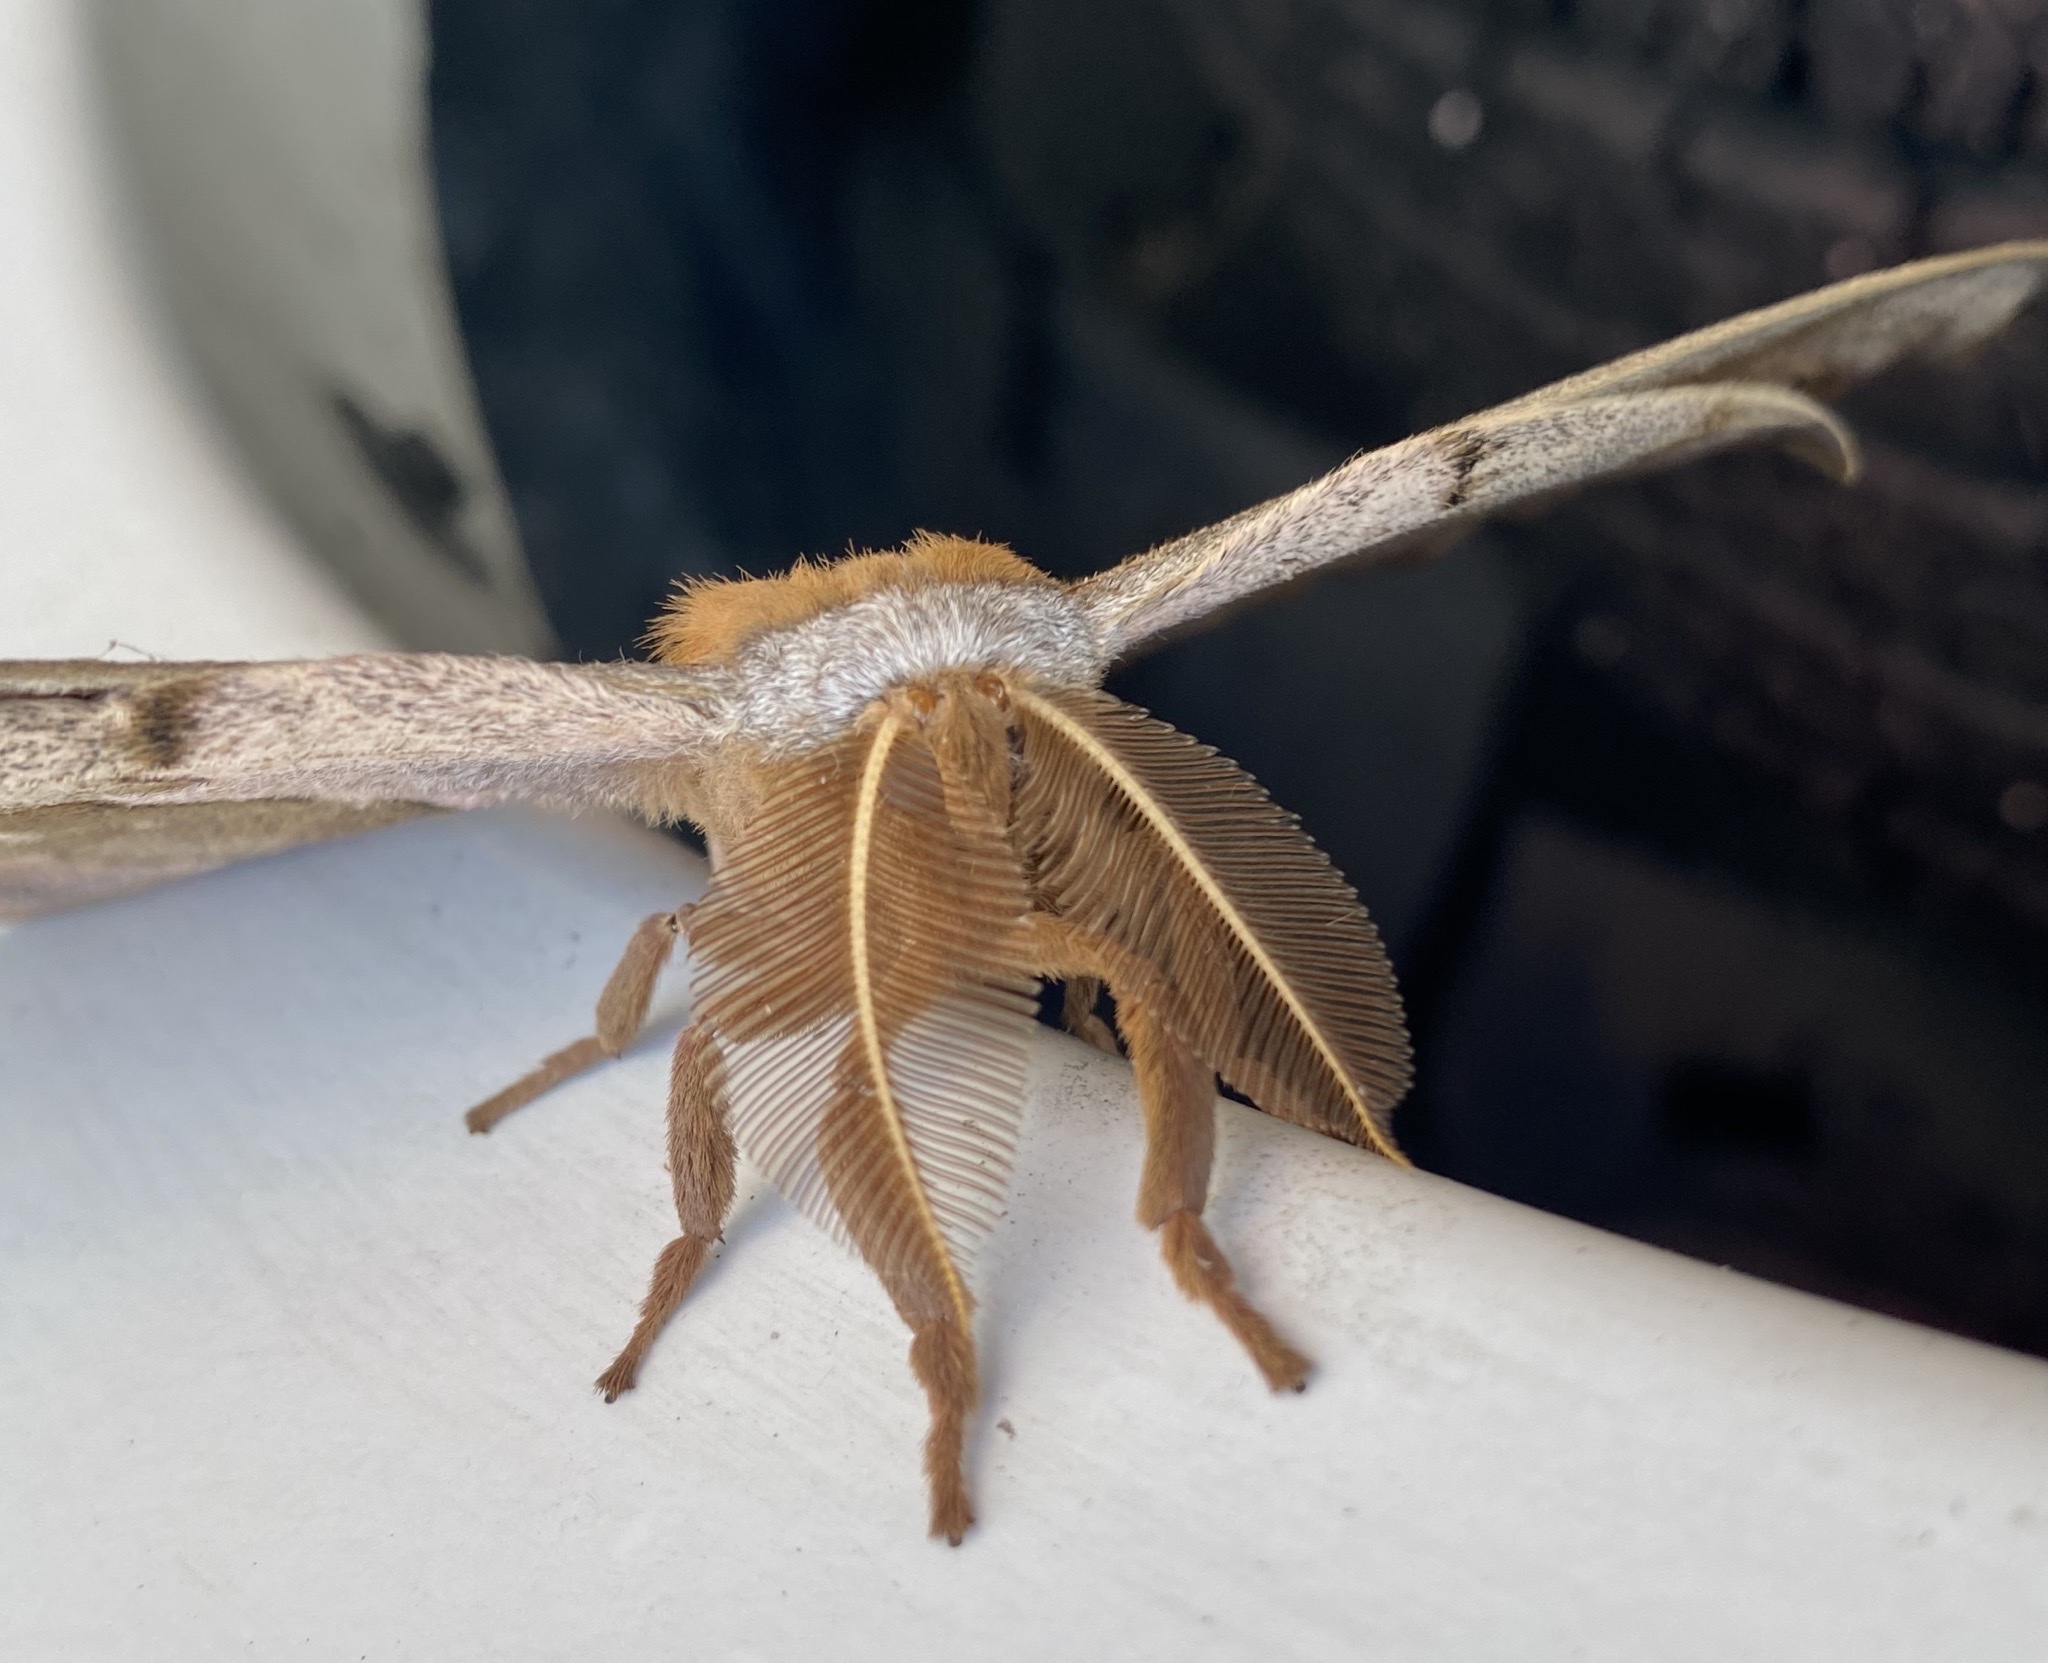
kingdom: Animalia
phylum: Arthropoda
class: Insecta
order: Lepidoptera
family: Saturniidae
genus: Antheraea
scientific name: Antheraea polyphemus
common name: Polyphemus moth
